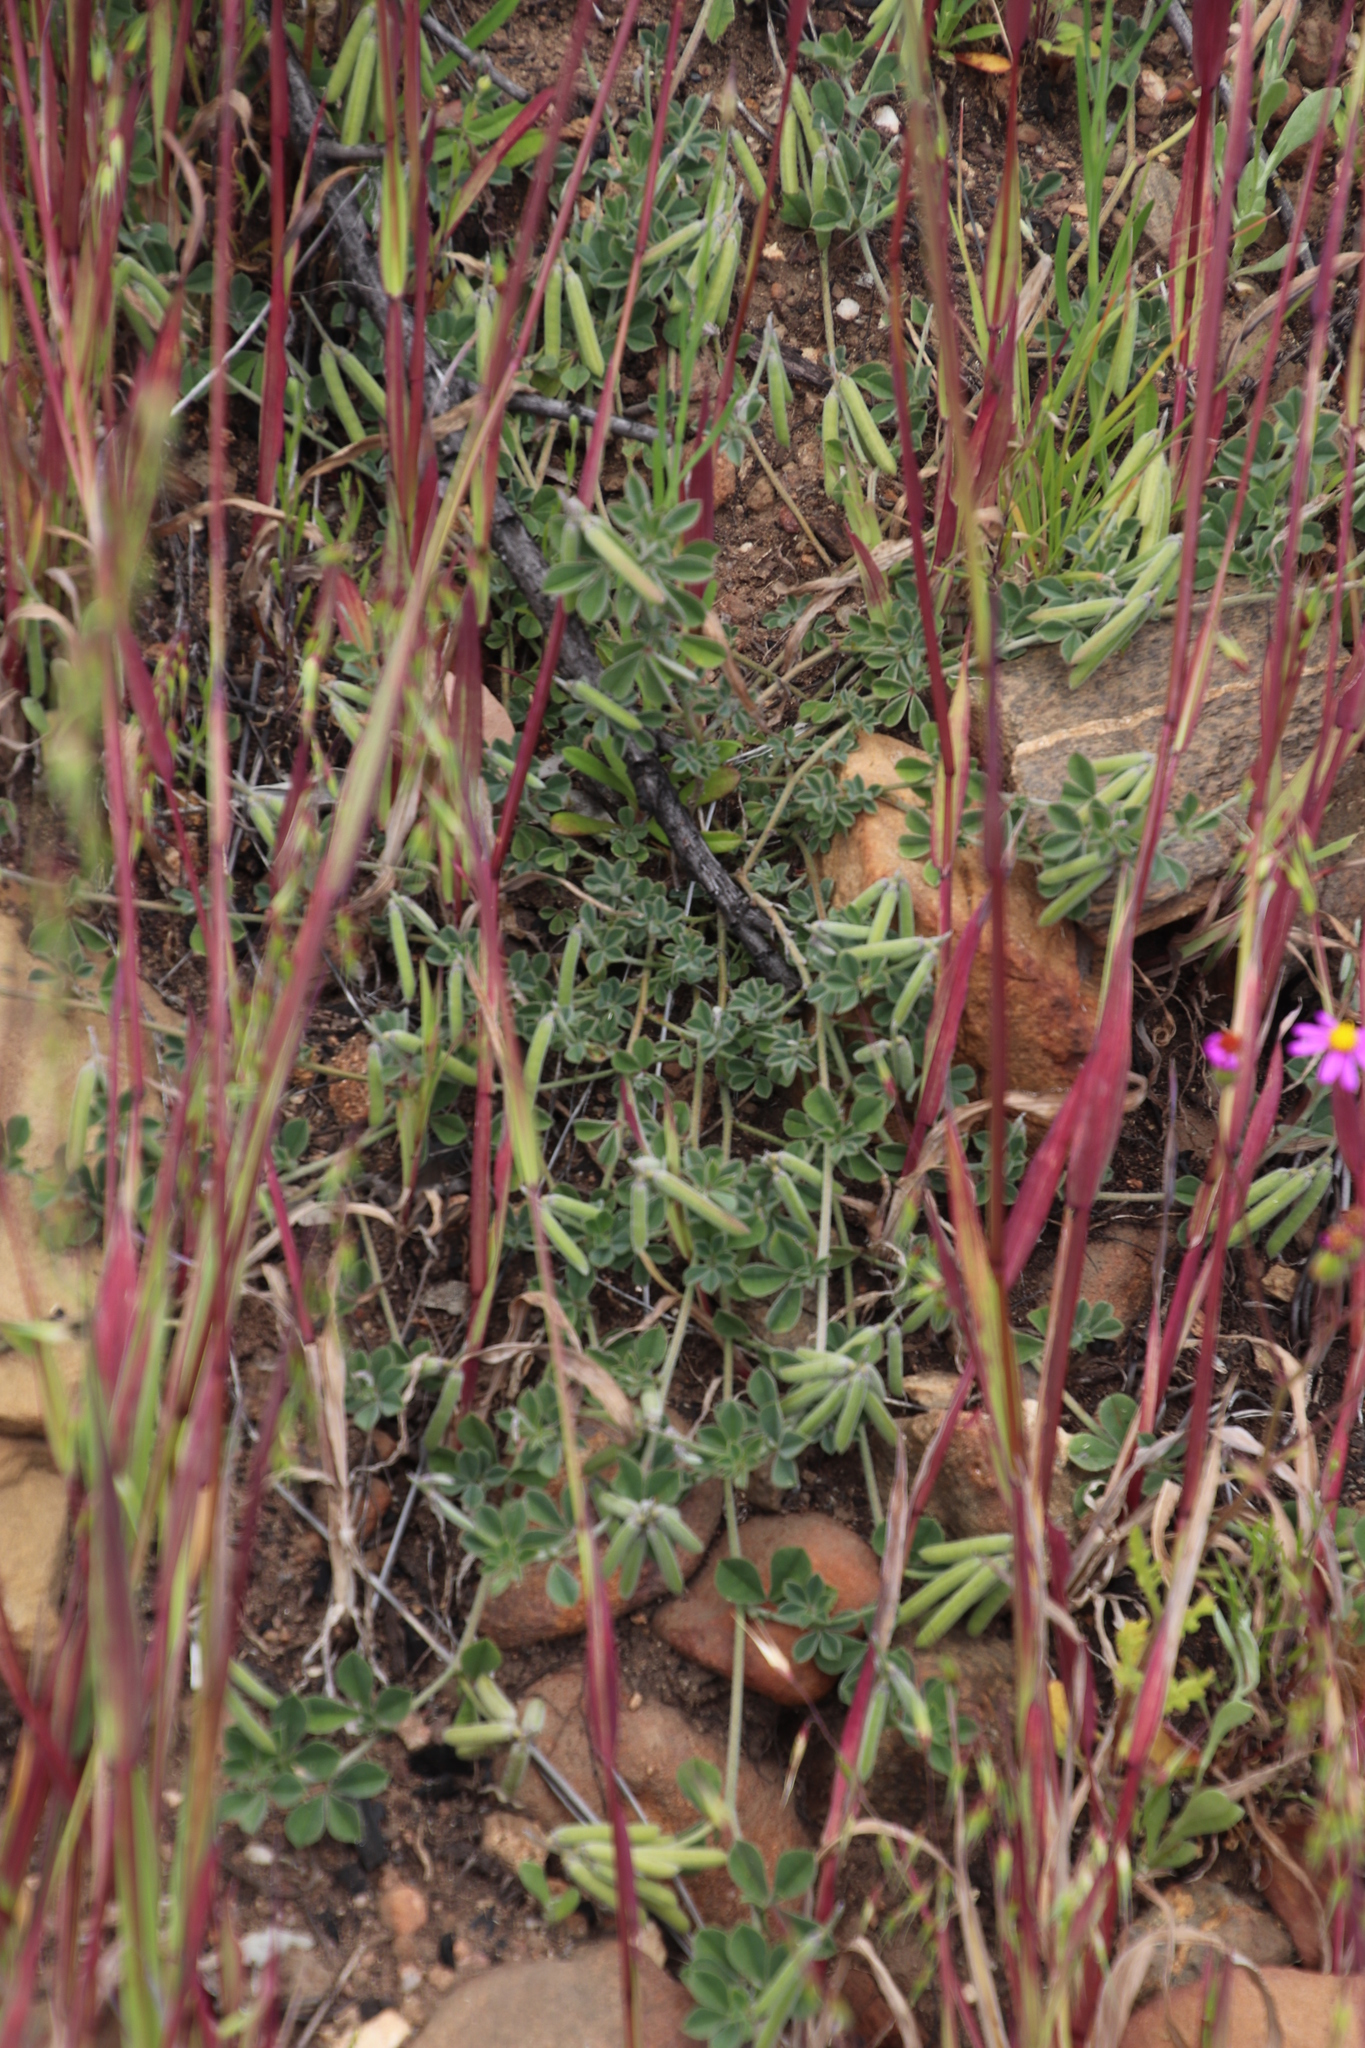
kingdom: Plantae
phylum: Tracheophyta
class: Magnoliopsida
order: Fabales
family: Fabaceae
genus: Indigofera
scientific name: Indigofera incana
